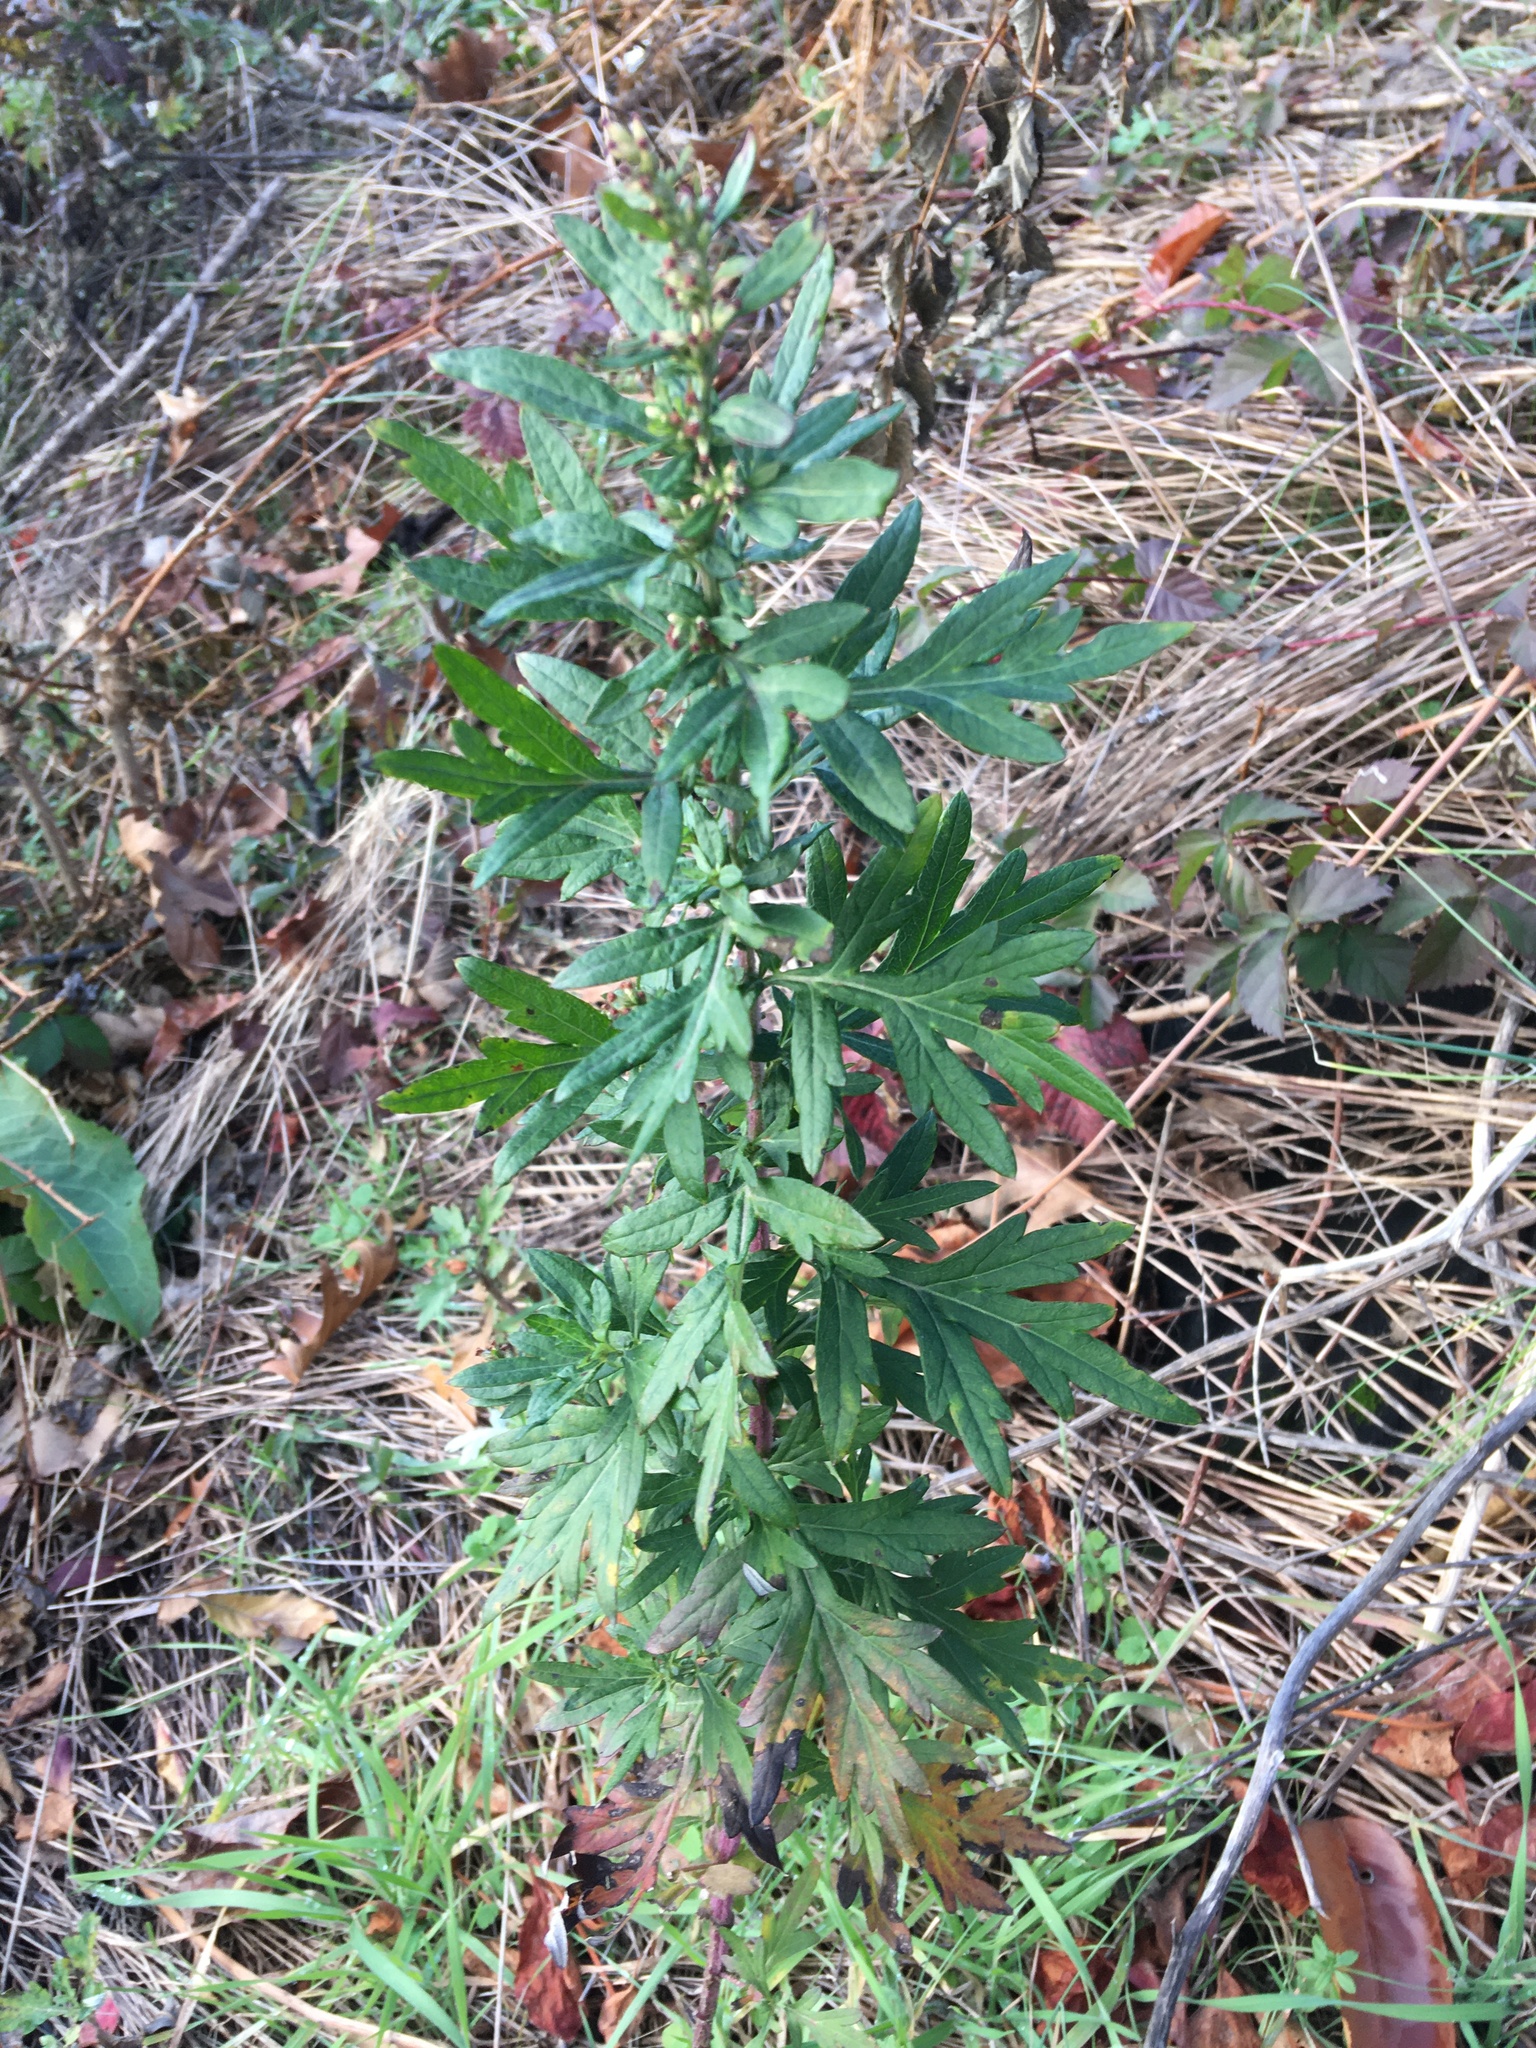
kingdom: Plantae
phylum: Tracheophyta
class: Magnoliopsida
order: Asterales
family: Asteraceae
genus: Artemisia
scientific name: Artemisia vulgaris
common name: Mugwort
